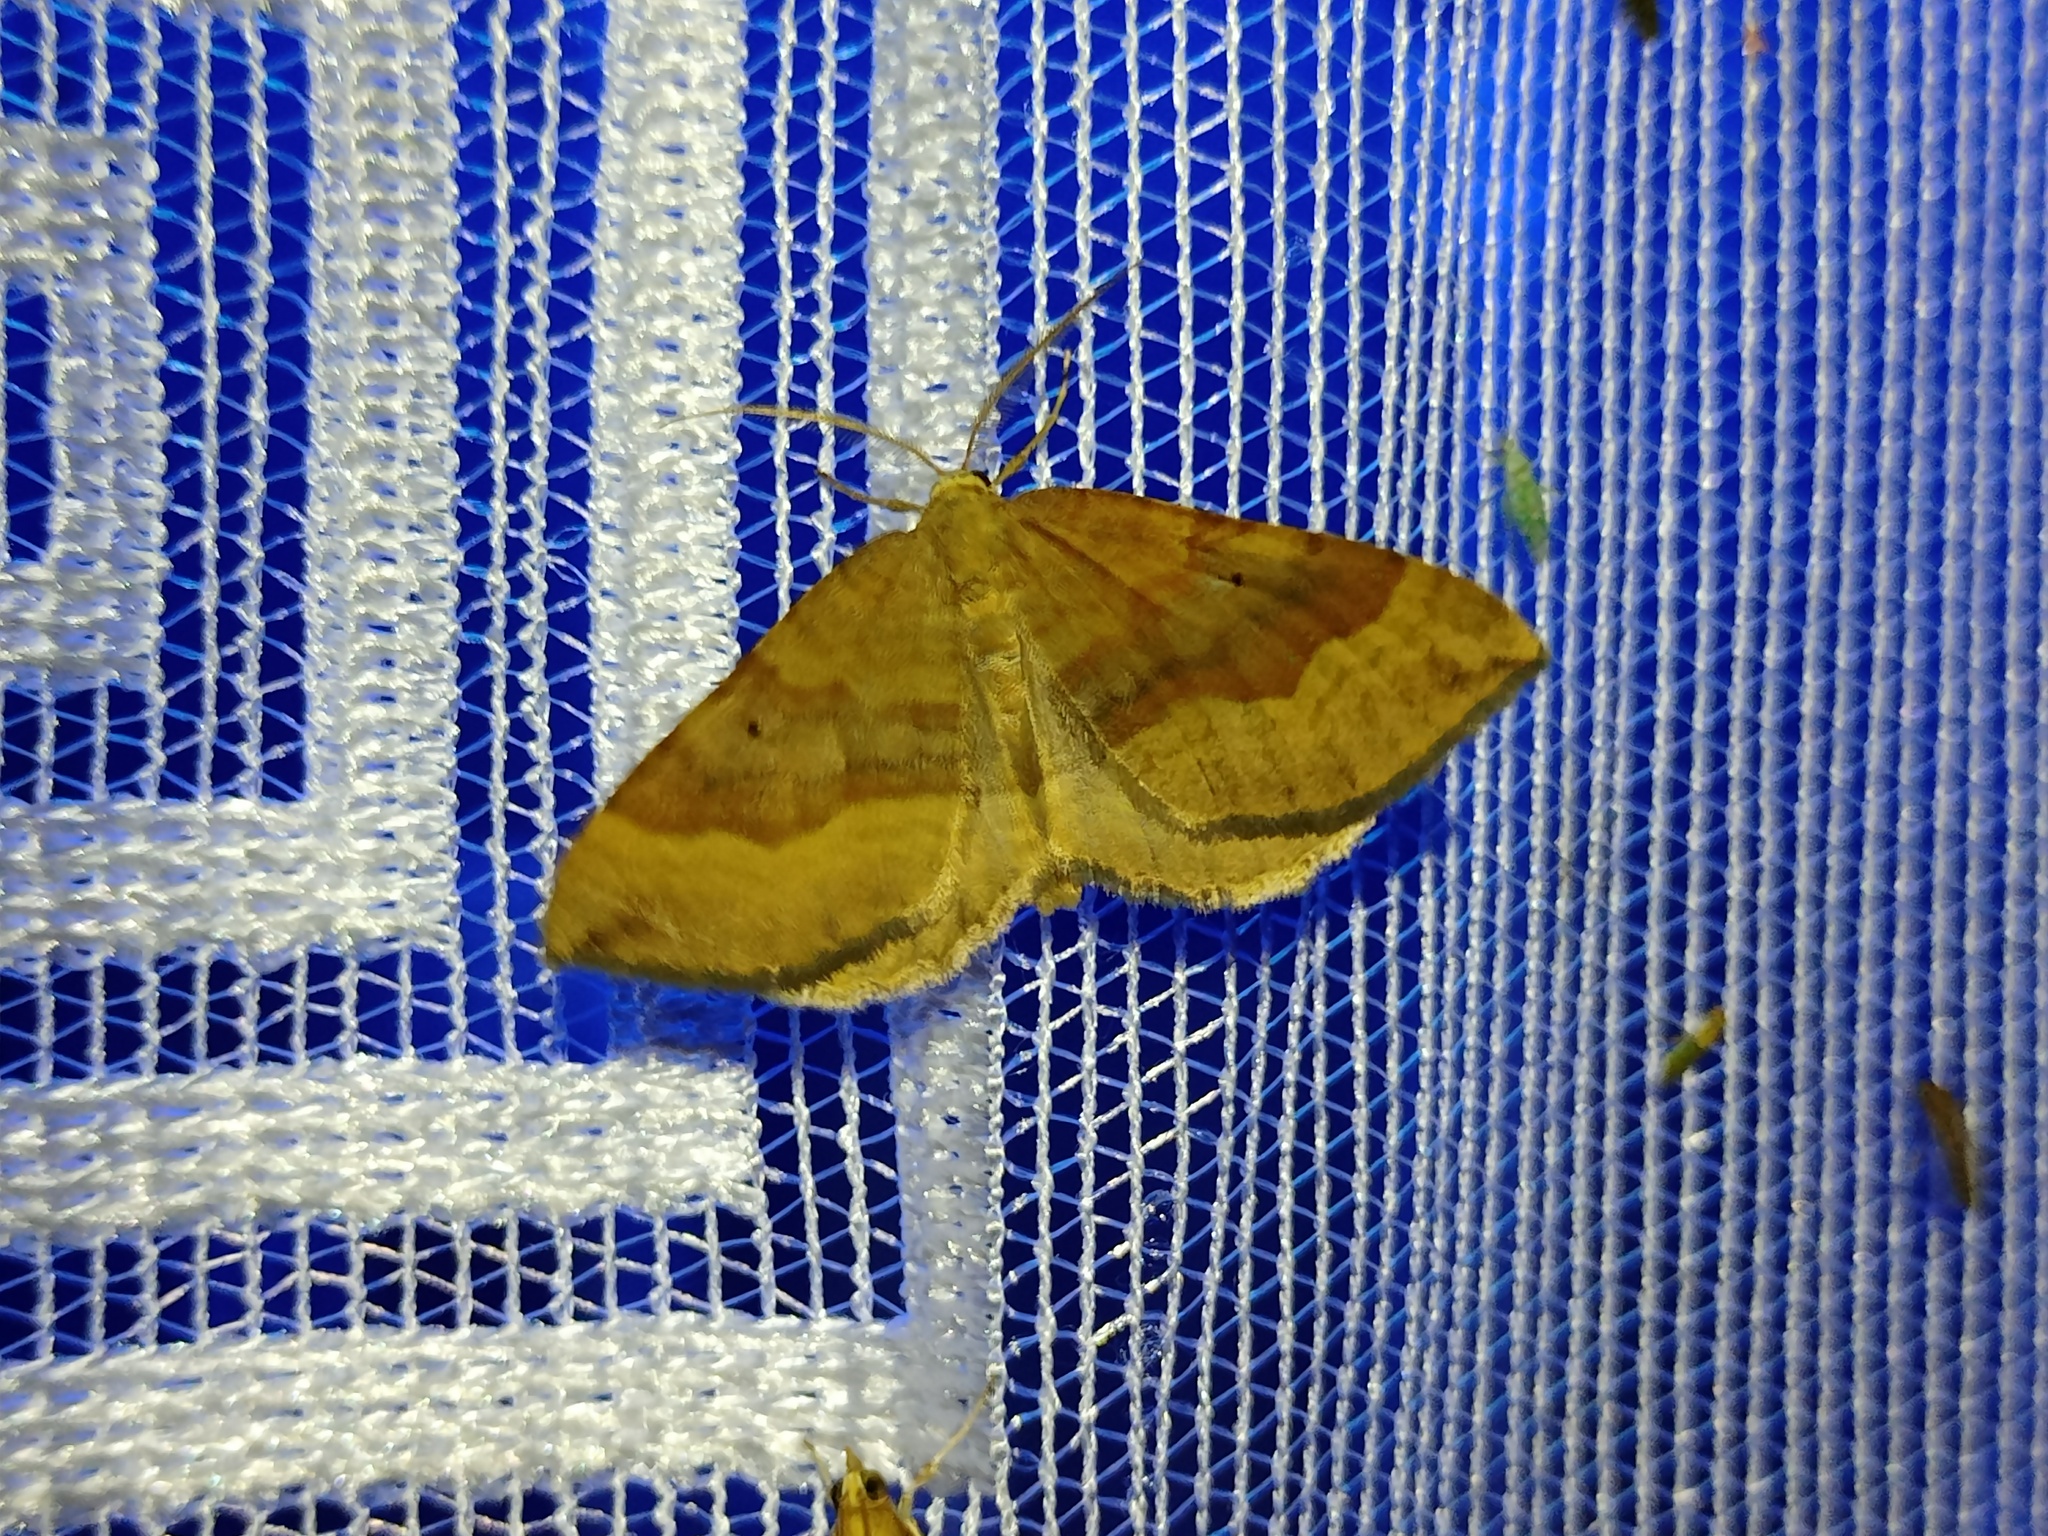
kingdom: Animalia
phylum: Arthropoda
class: Insecta
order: Lepidoptera
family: Geometridae
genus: Scotopteryx
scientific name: Scotopteryx chenopodiata
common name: Shaded broad-bar
